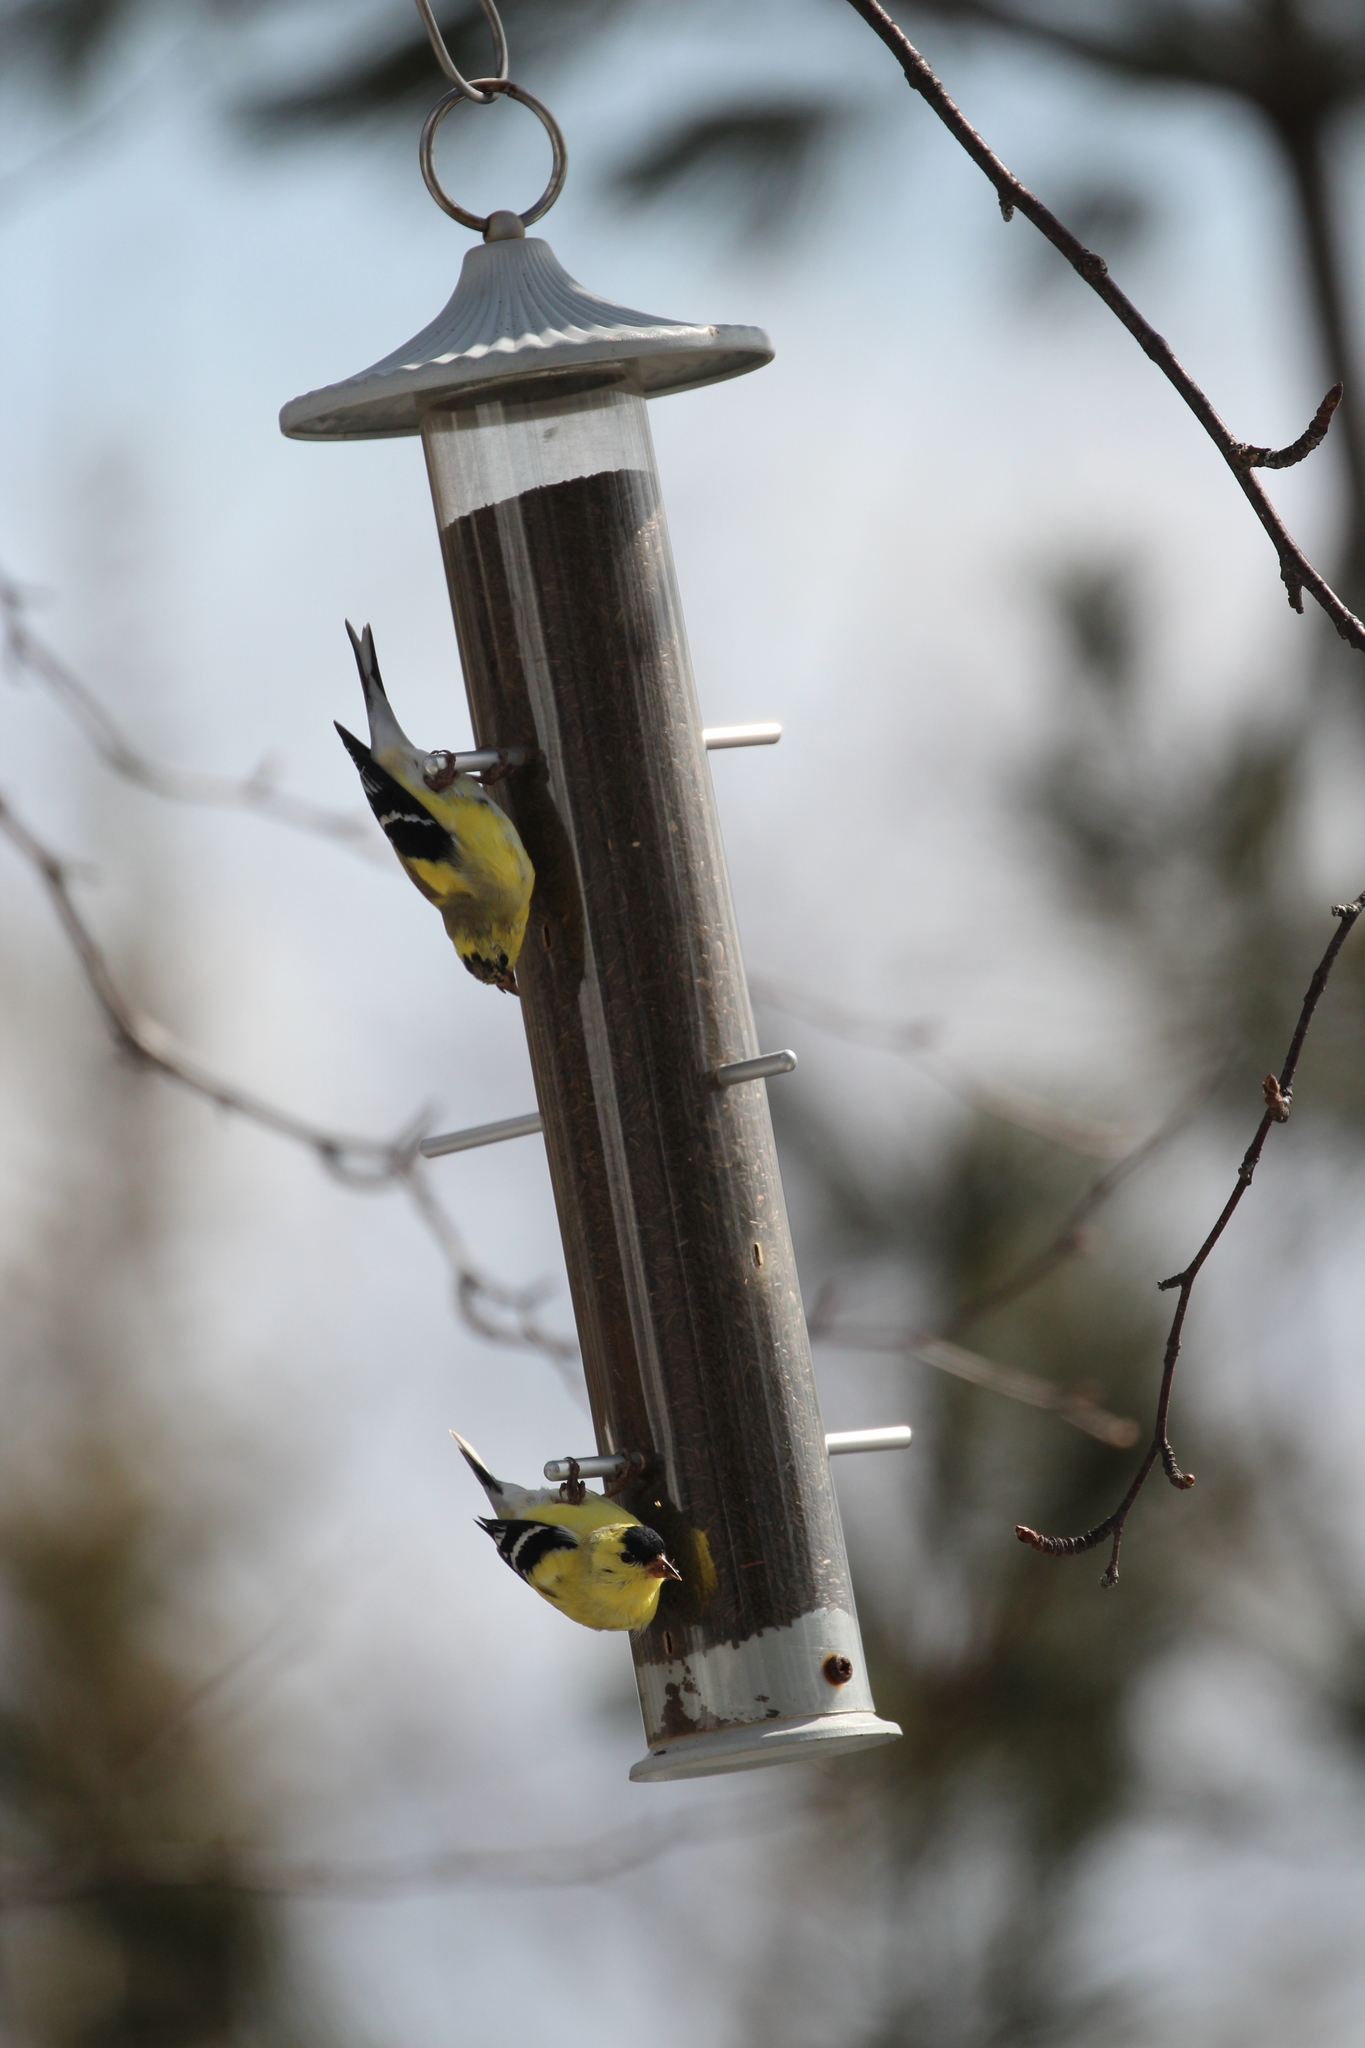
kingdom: Animalia
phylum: Chordata
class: Aves
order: Passeriformes
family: Fringillidae
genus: Spinus
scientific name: Spinus tristis
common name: American goldfinch
